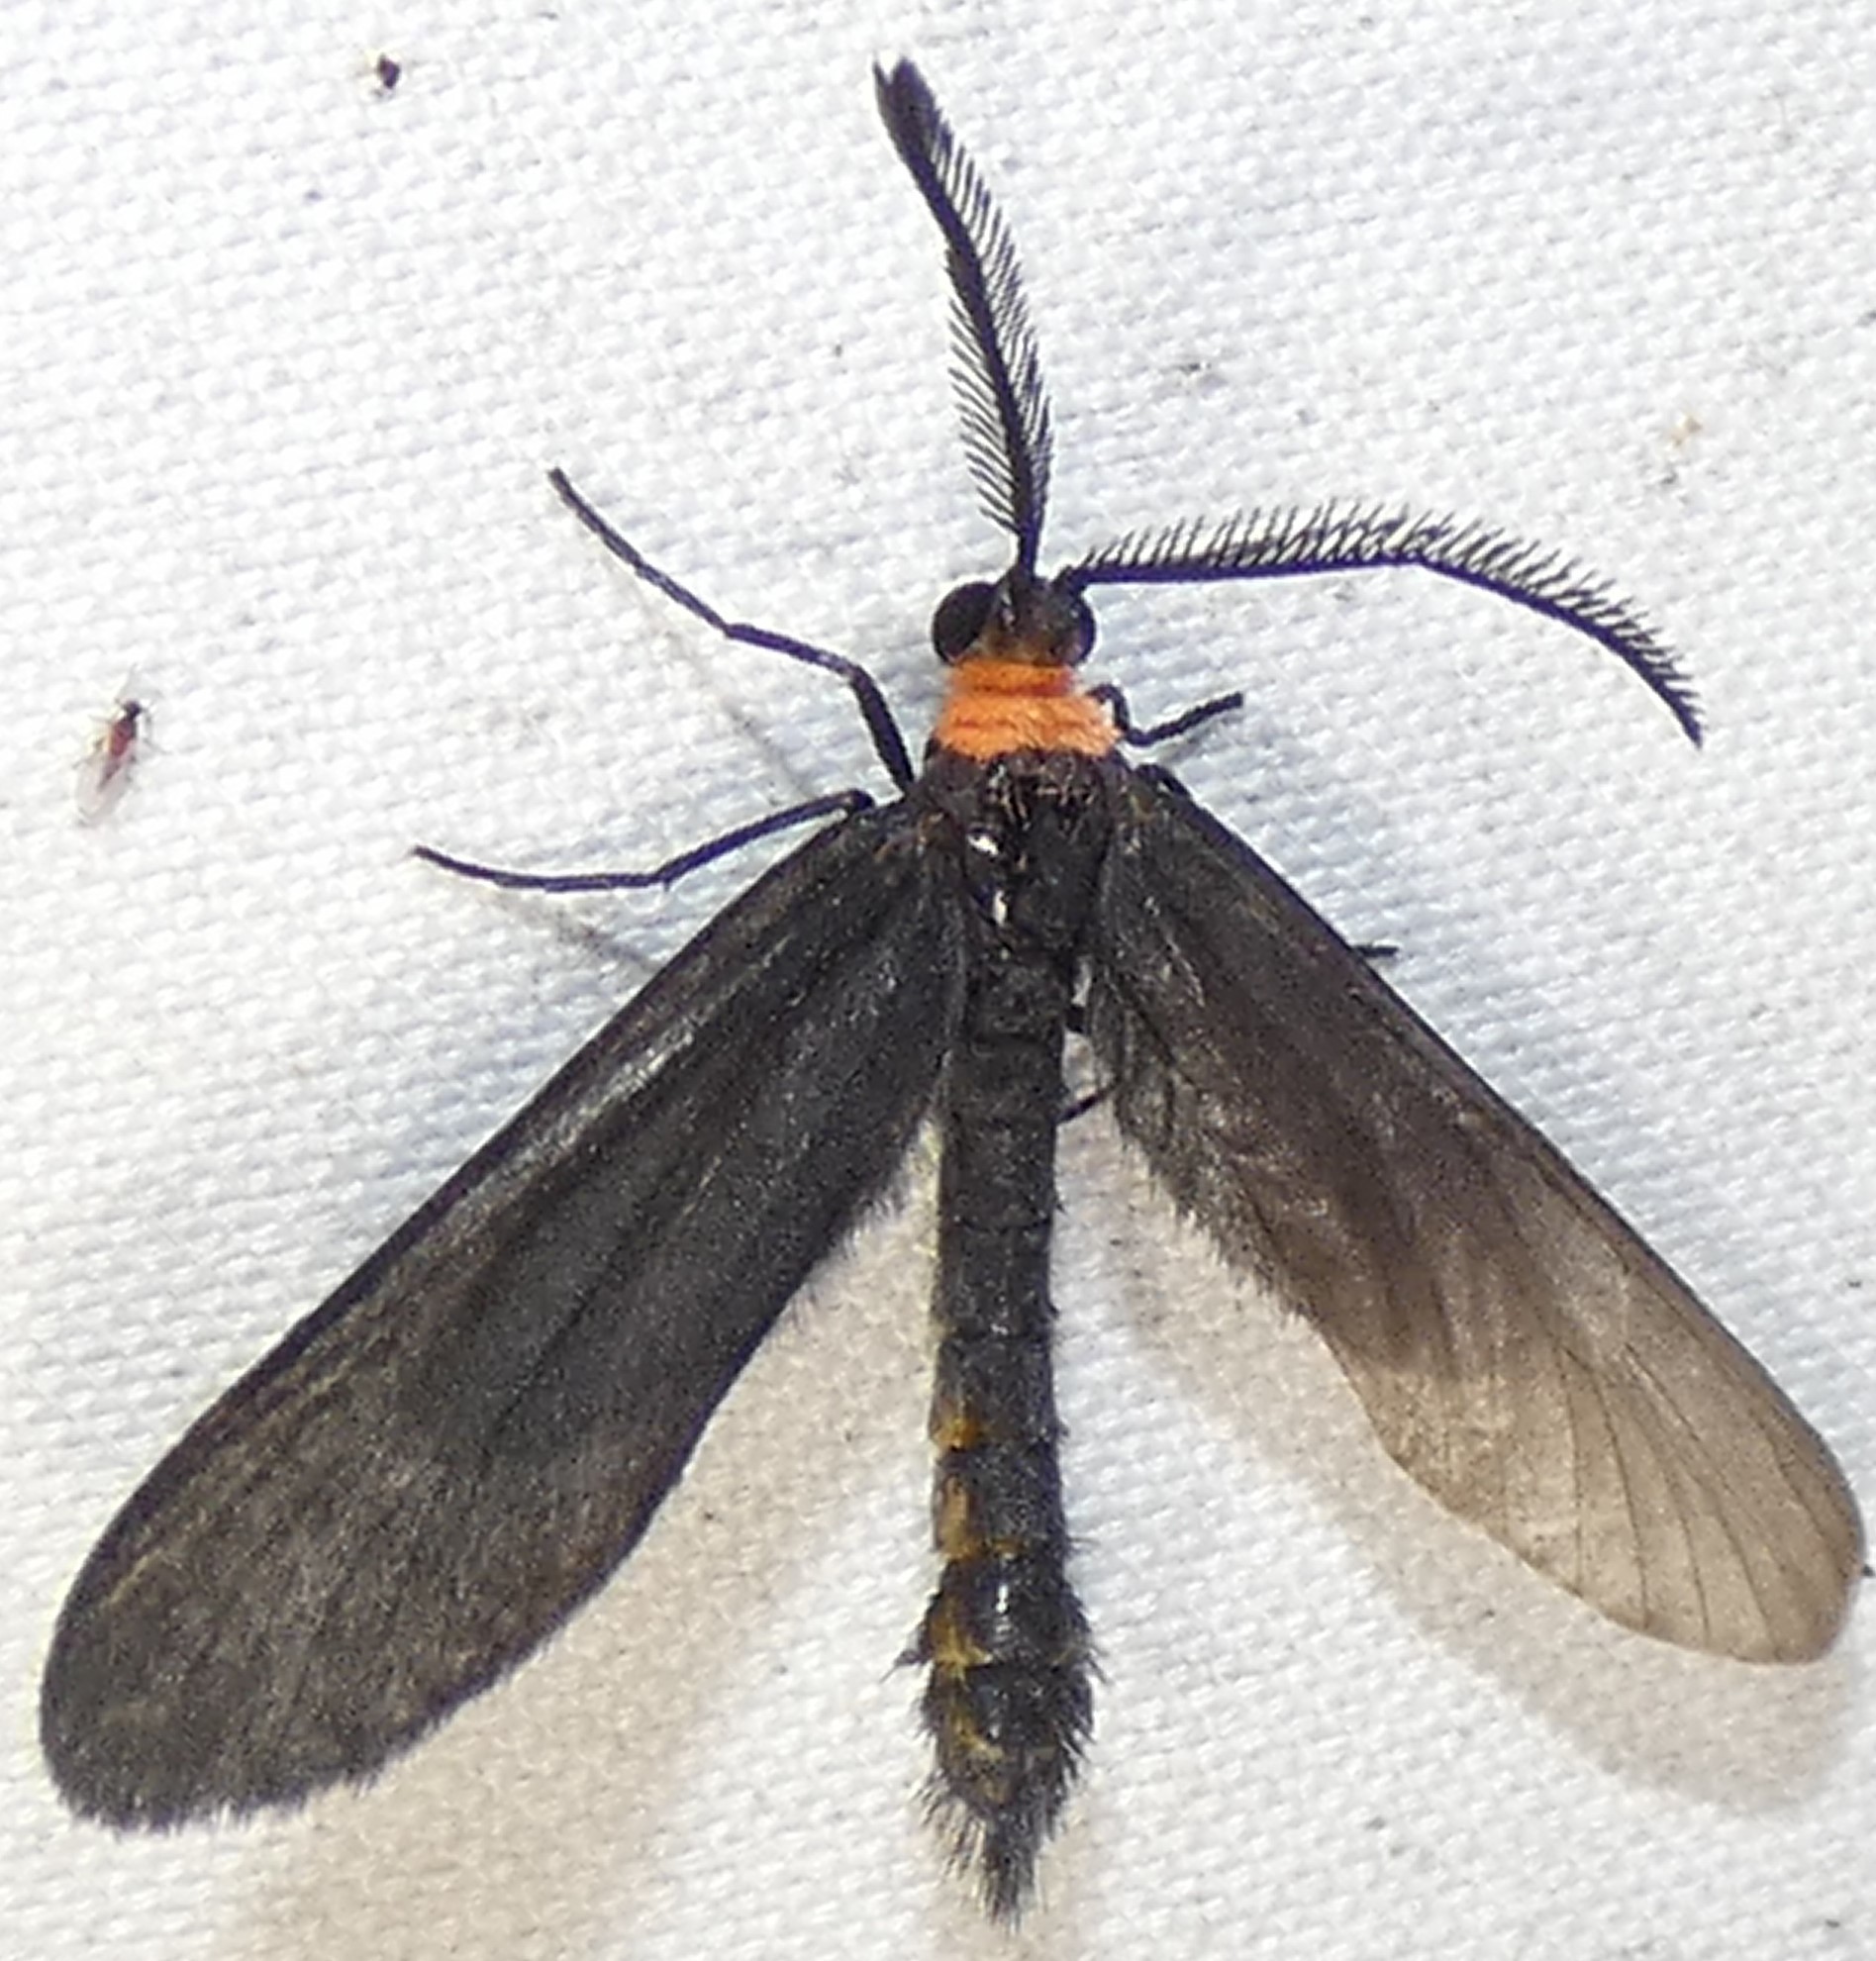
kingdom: Animalia
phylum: Arthropoda
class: Insecta
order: Lepidoptera
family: Zygaenidae
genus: Harrisina
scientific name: Harrisina americana
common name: Grapeleaf skeletonizer moth
